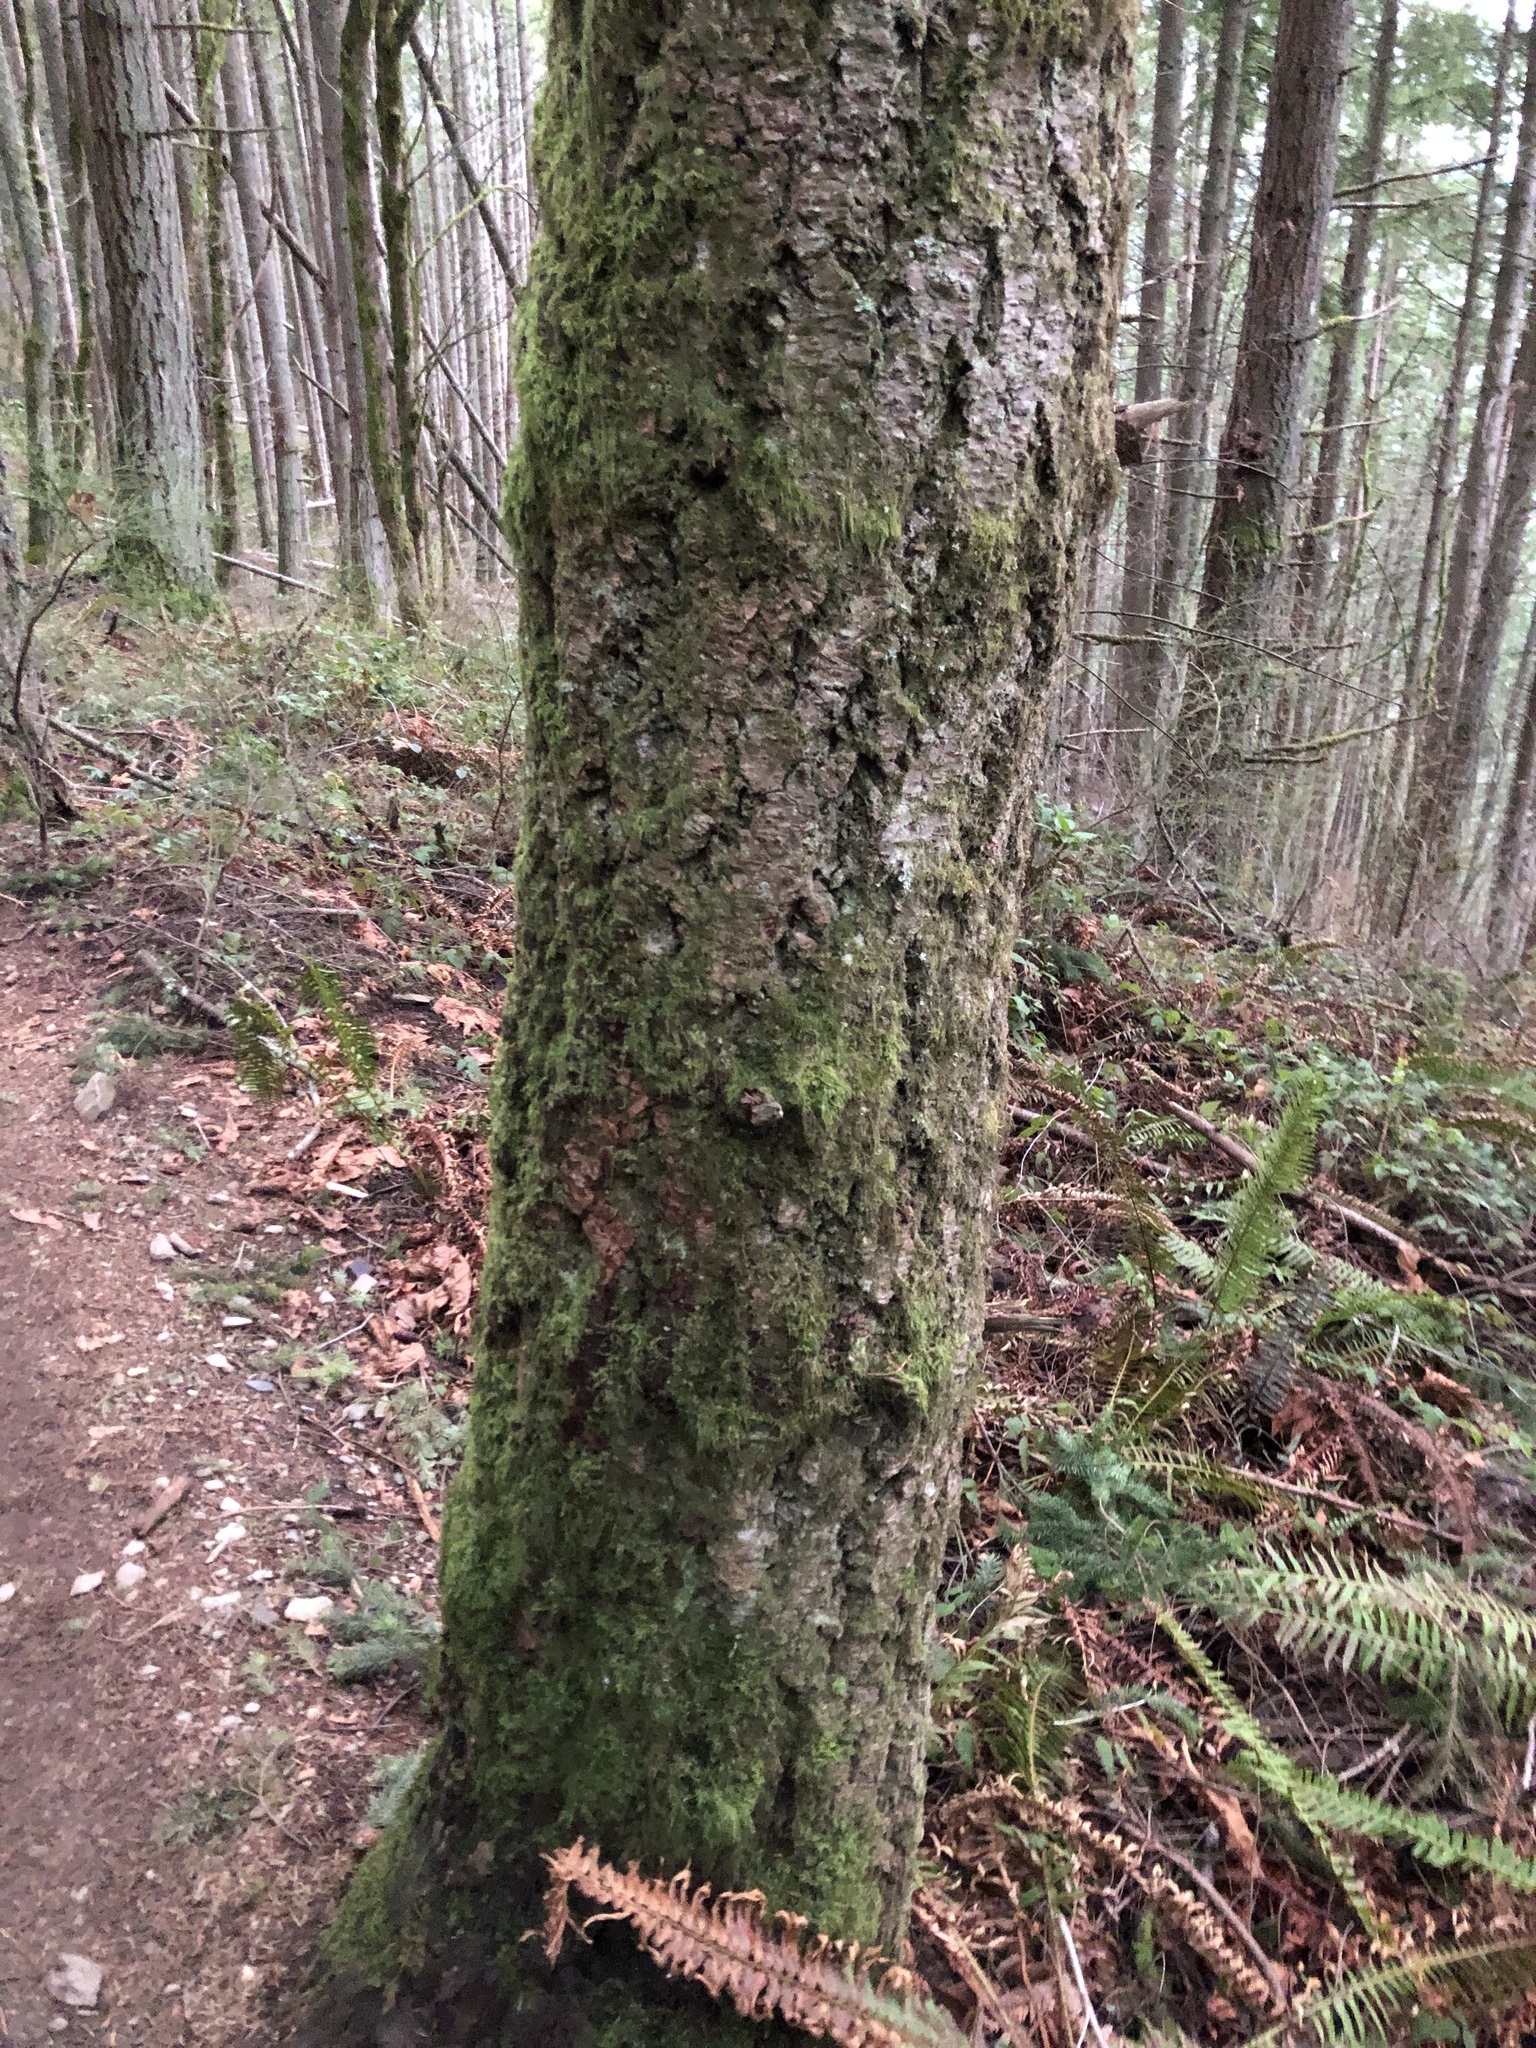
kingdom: Plantae
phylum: Tracheophyta
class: Pinopsida
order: Pinales
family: Pinaceae
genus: Pseudotsuga
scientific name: Pseudotsuga menziesii
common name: Douglas fir
